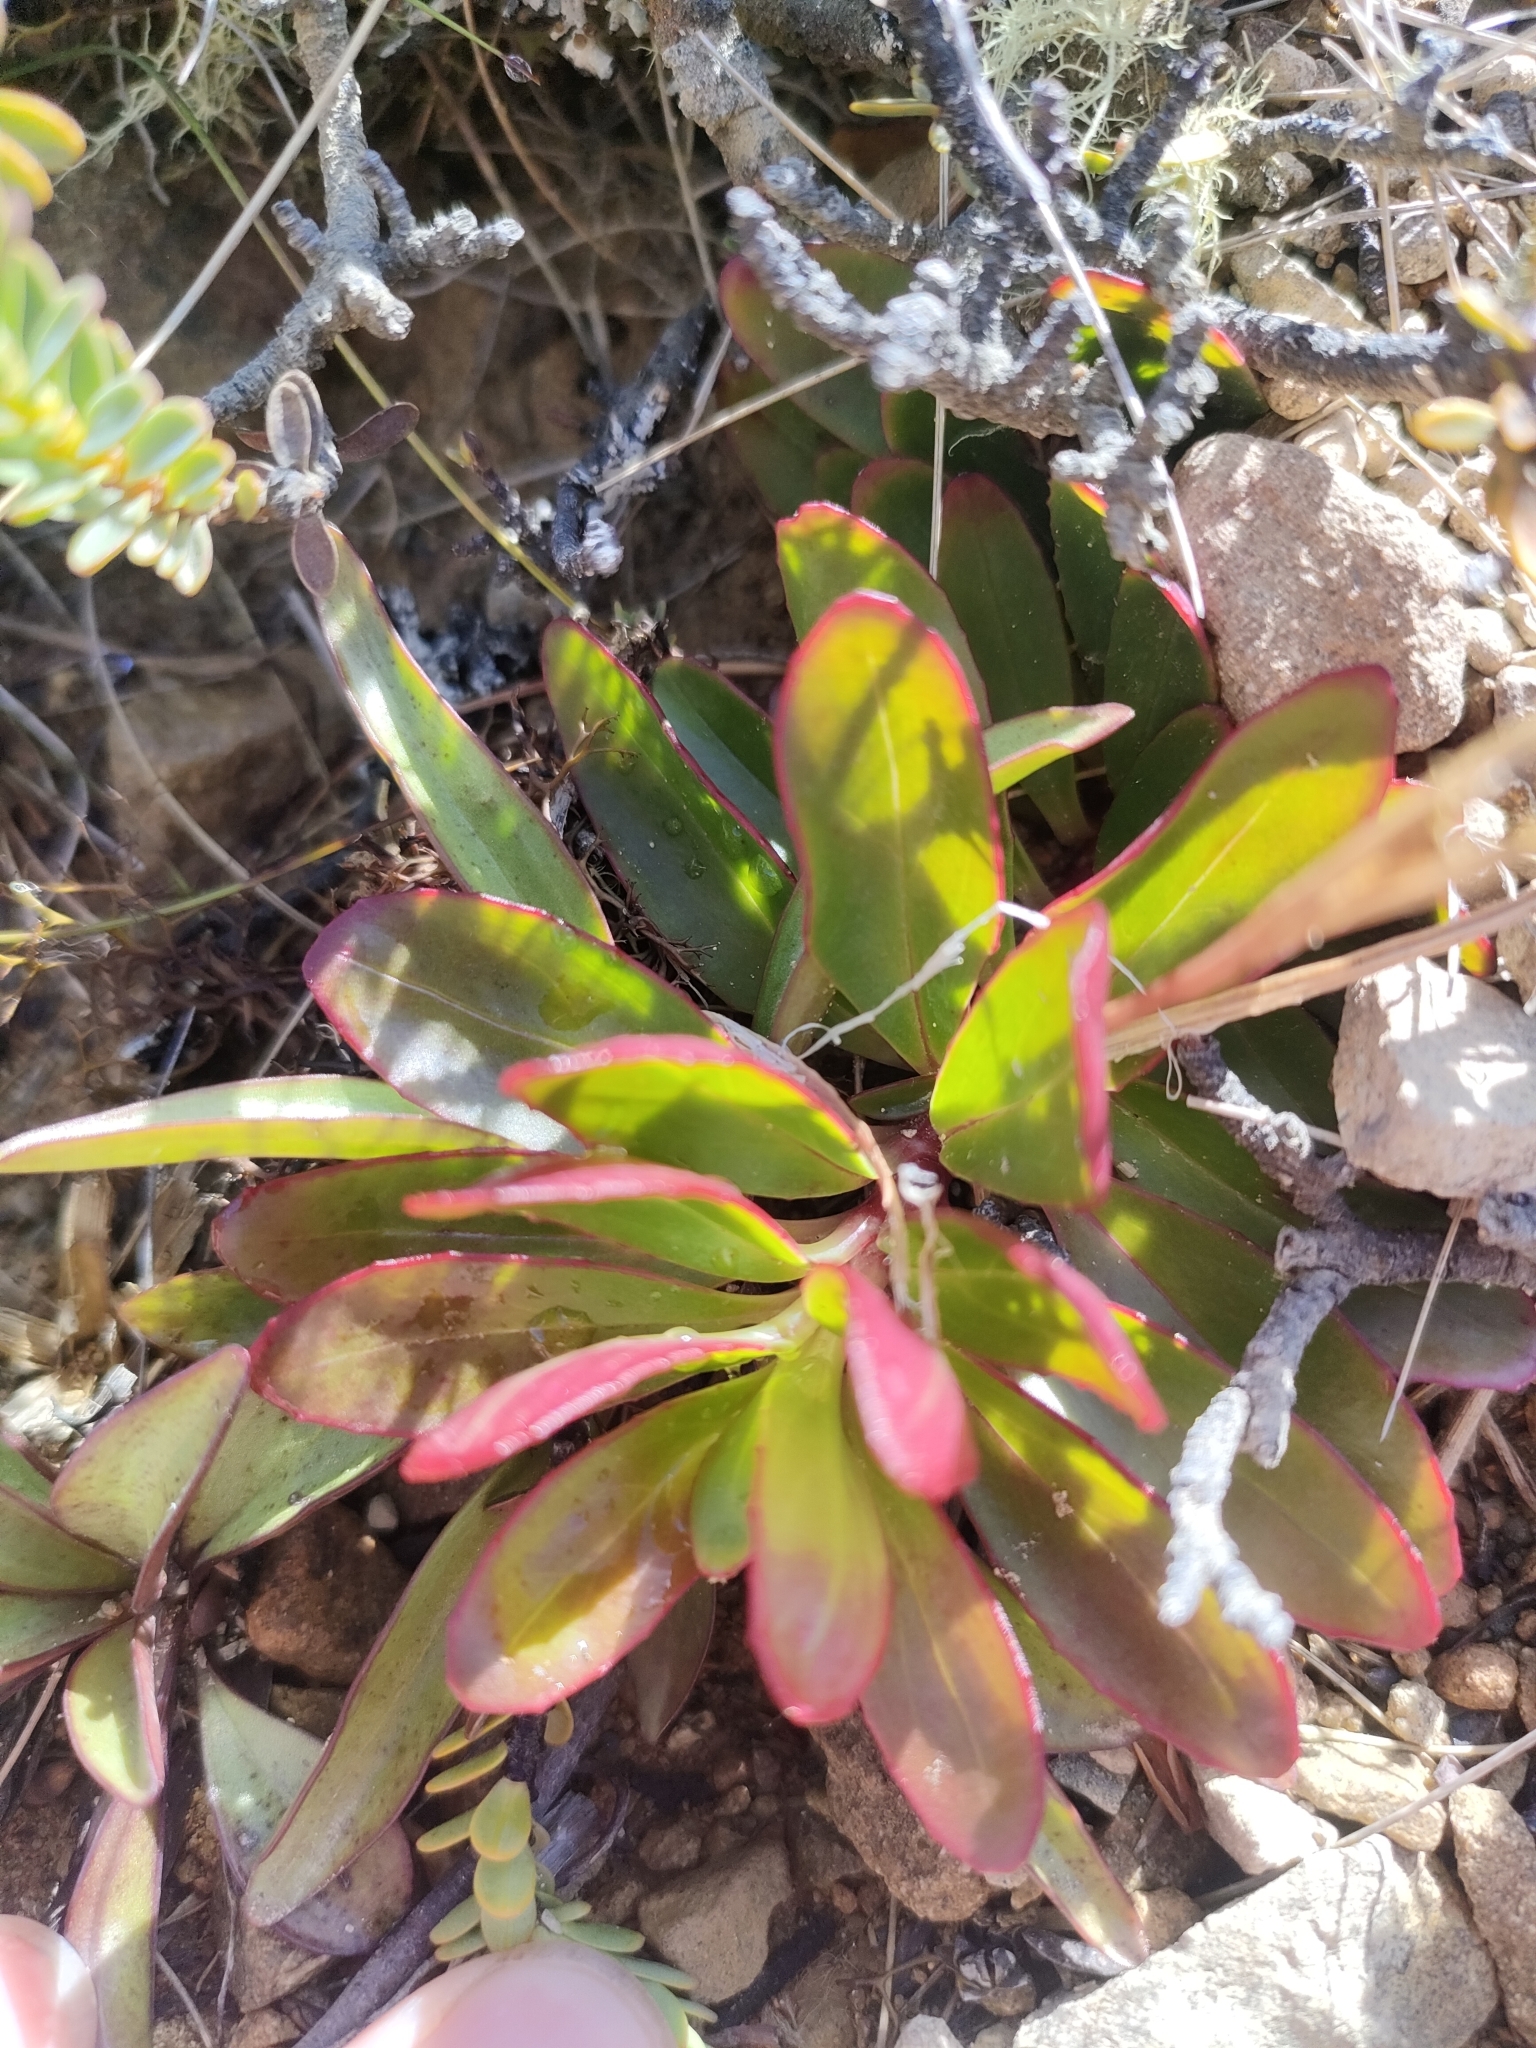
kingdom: Plantae
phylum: Tracheophyta
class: Magnoliopsida
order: Myrtales
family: Onagraceae
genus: Epilobium
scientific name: Epilobium crassum
